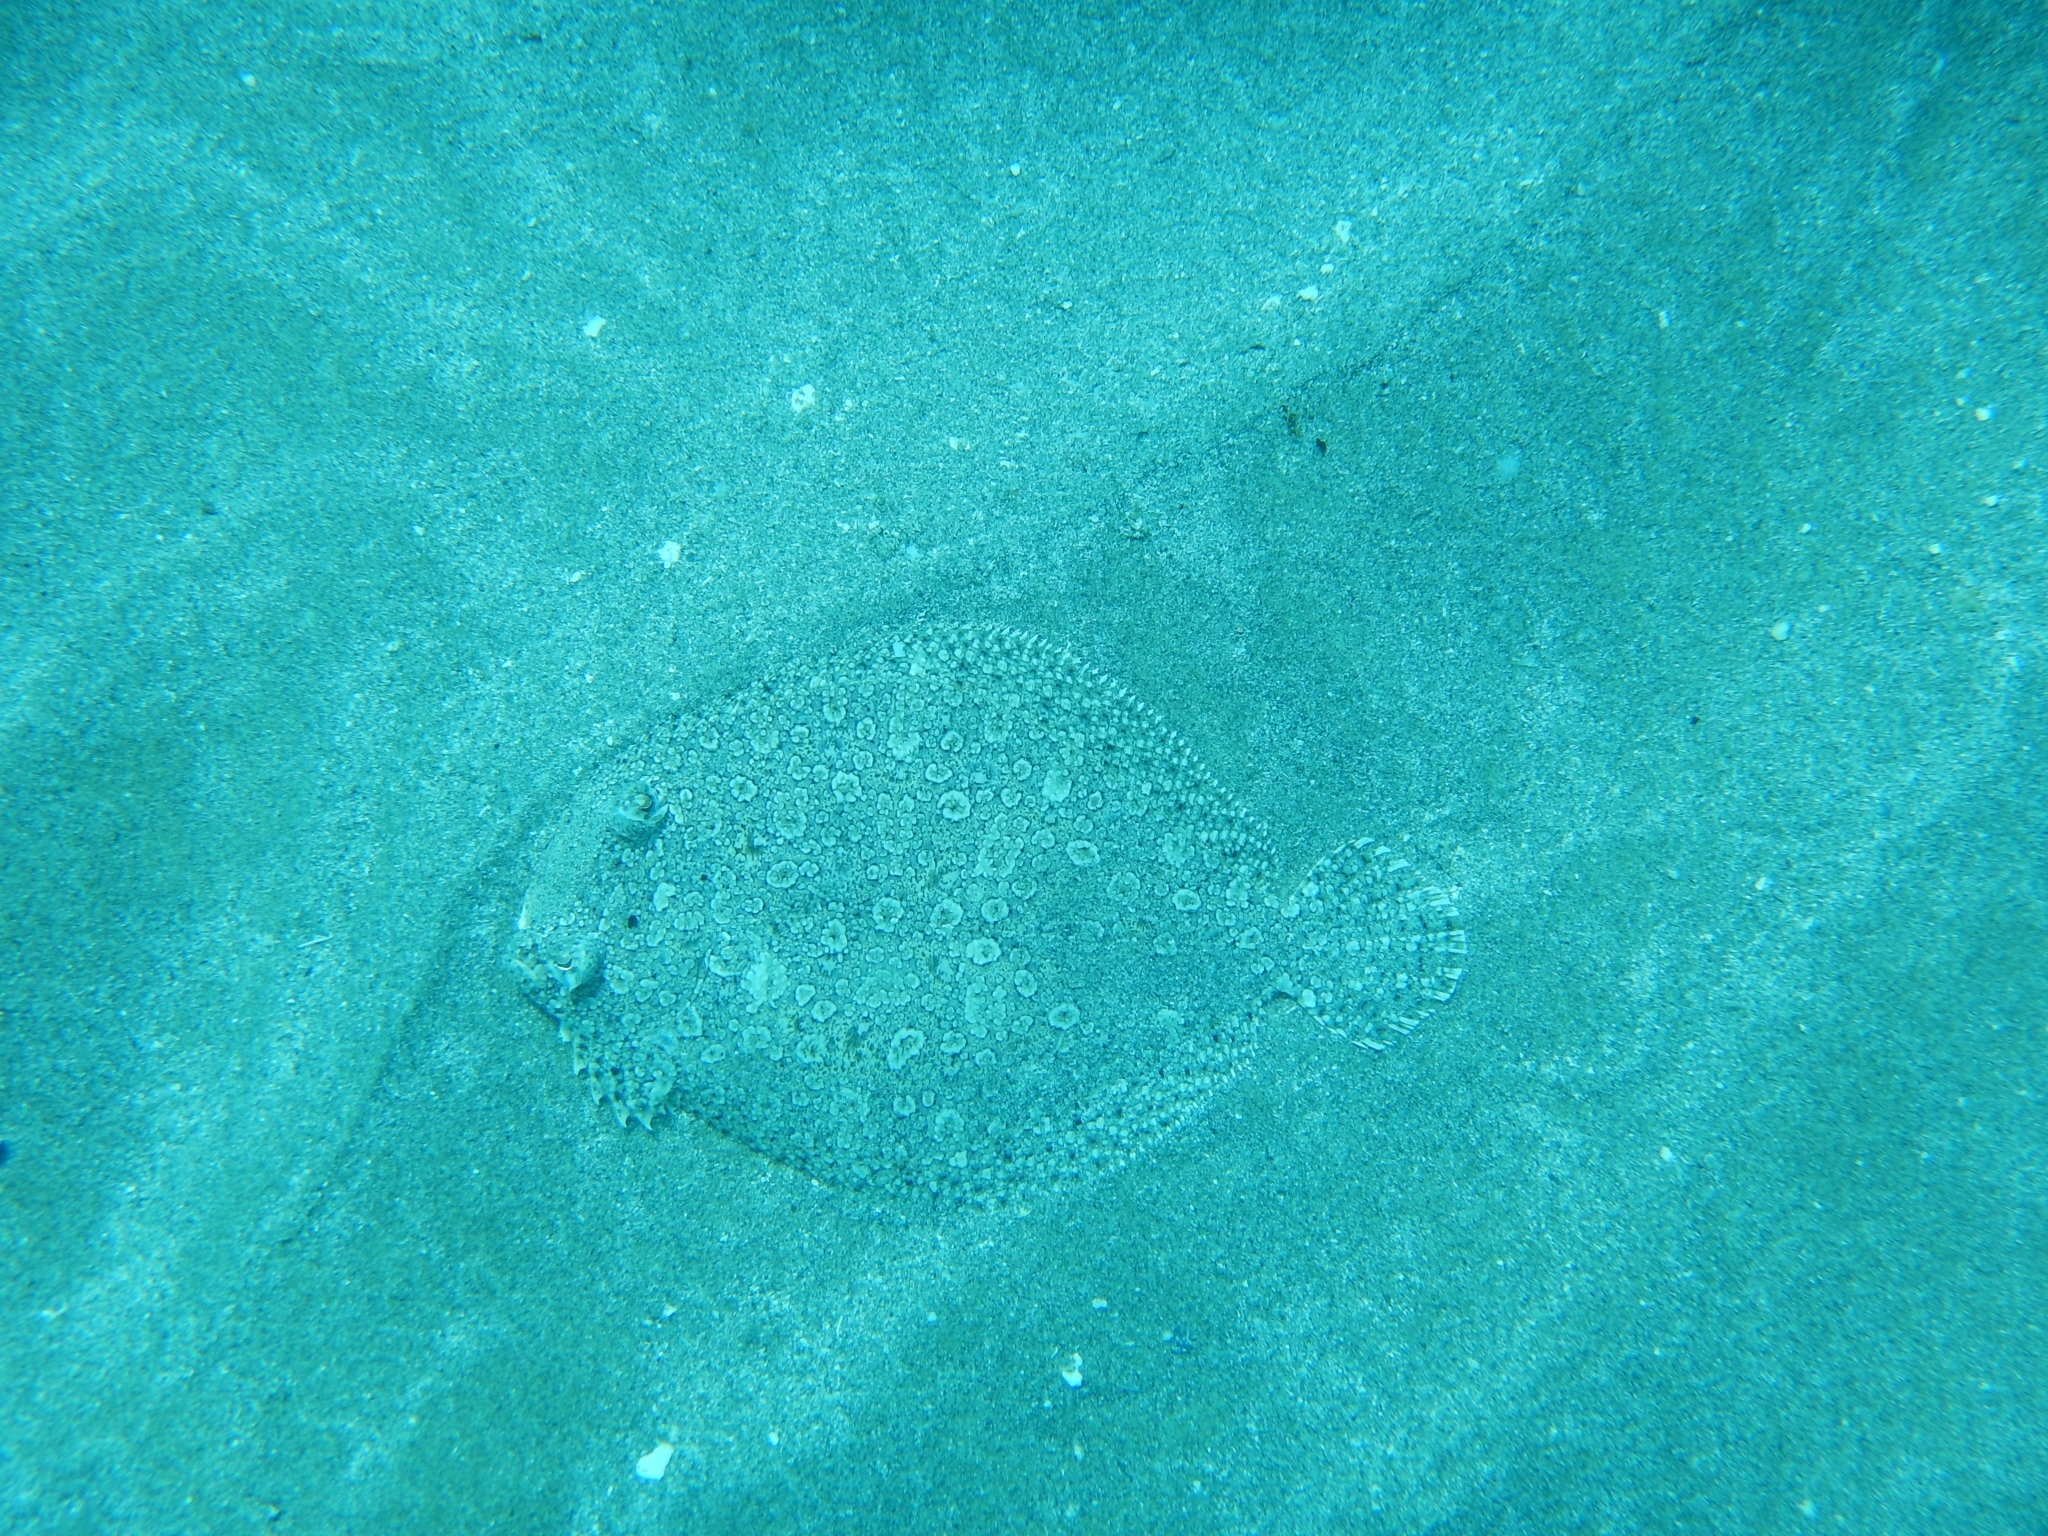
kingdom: Animalia
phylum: Chordata
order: Pleuronectiformes
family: Bothidae
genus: Bothus
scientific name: Bothus maculiferus
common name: Mottled flounder
